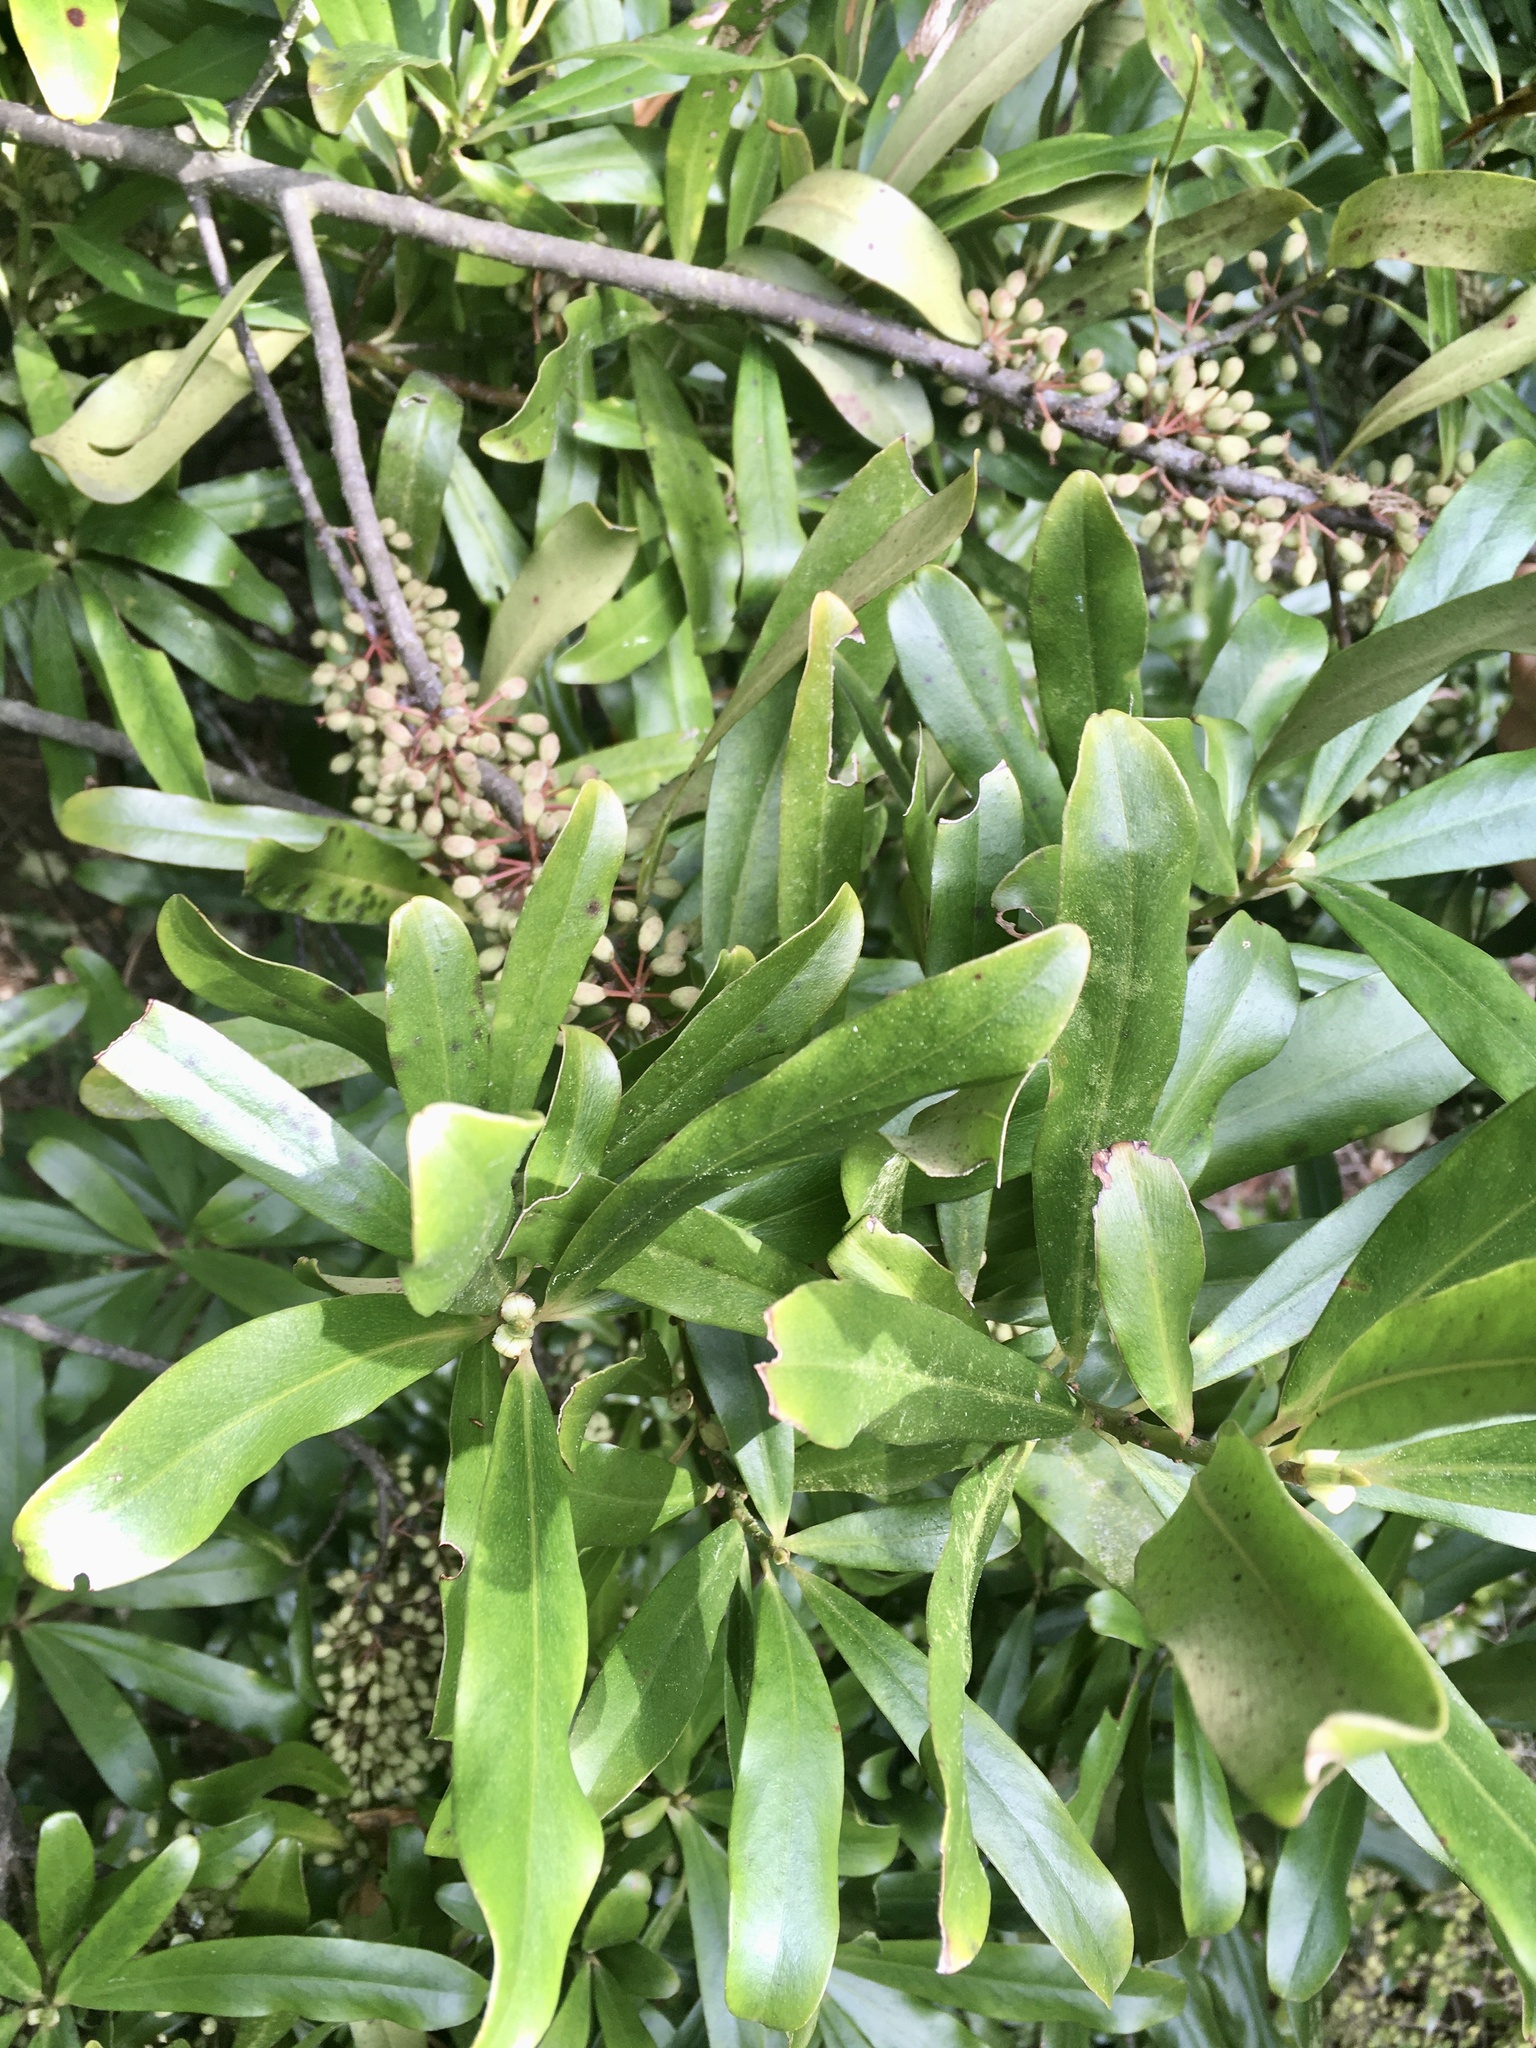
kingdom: Plantae
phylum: Tracheophyta
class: Magnoliopsida
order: Ericales
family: Primulaceae
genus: Myrsine
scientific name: Myrsine salicina
